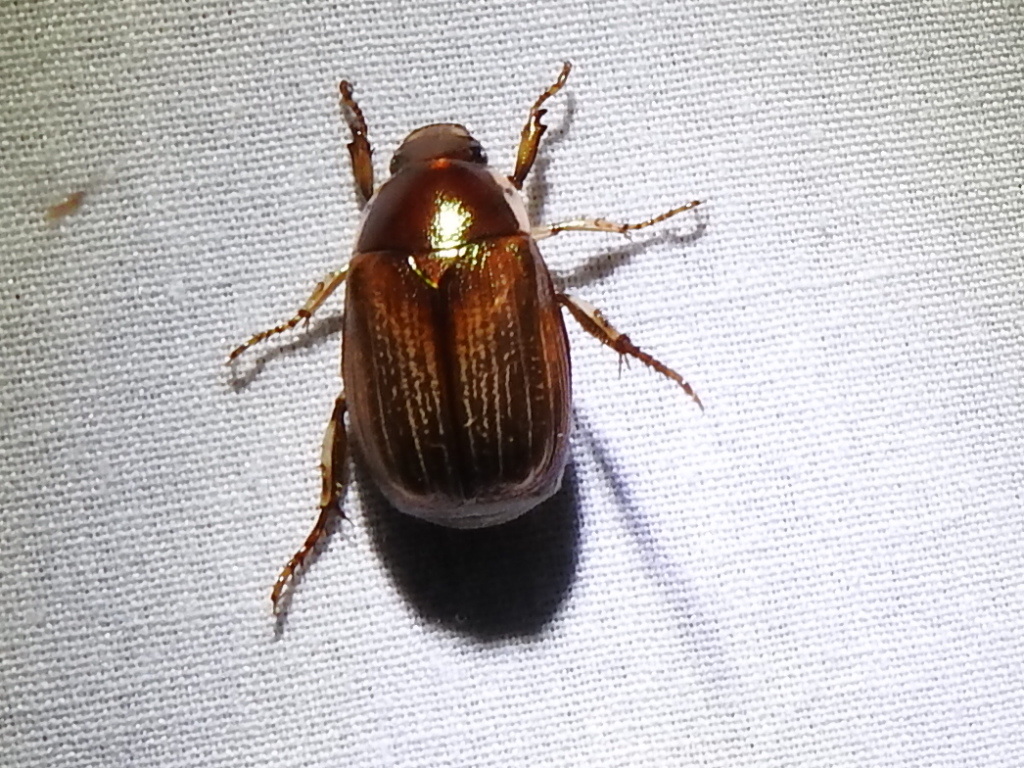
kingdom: Animalia
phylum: Arthropoda
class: Insecta
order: Coleoptera
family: Scarabaeidae
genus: Callistethus
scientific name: Callistethus marginatus
